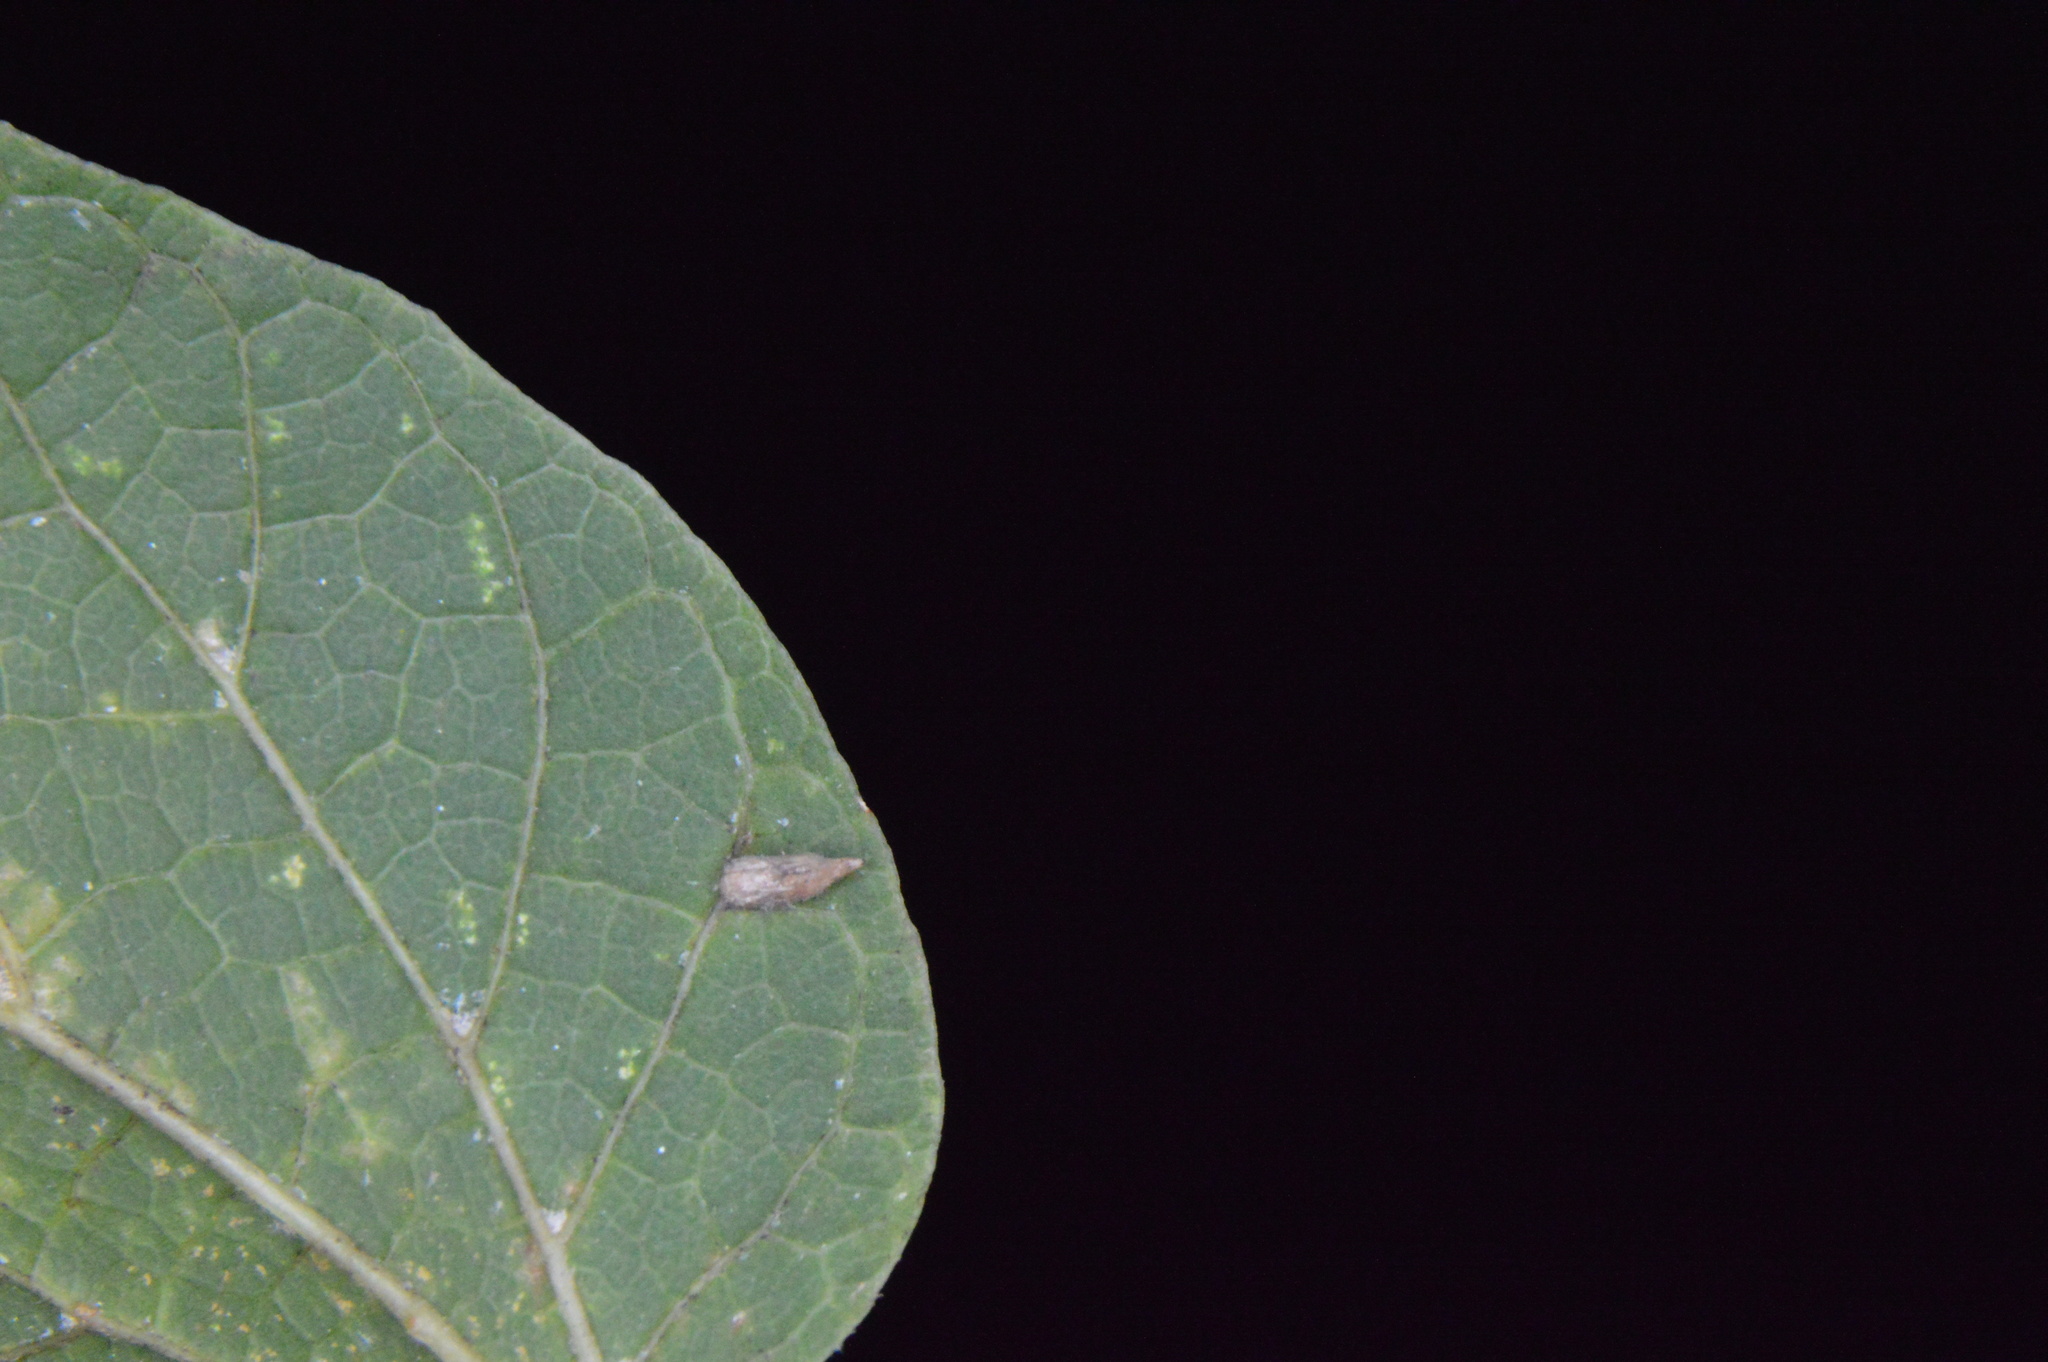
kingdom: Animalia
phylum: Arthropoda
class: Insecta
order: Diptera
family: Cecidomyiidae
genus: Celticecis
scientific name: Celticecis supina
